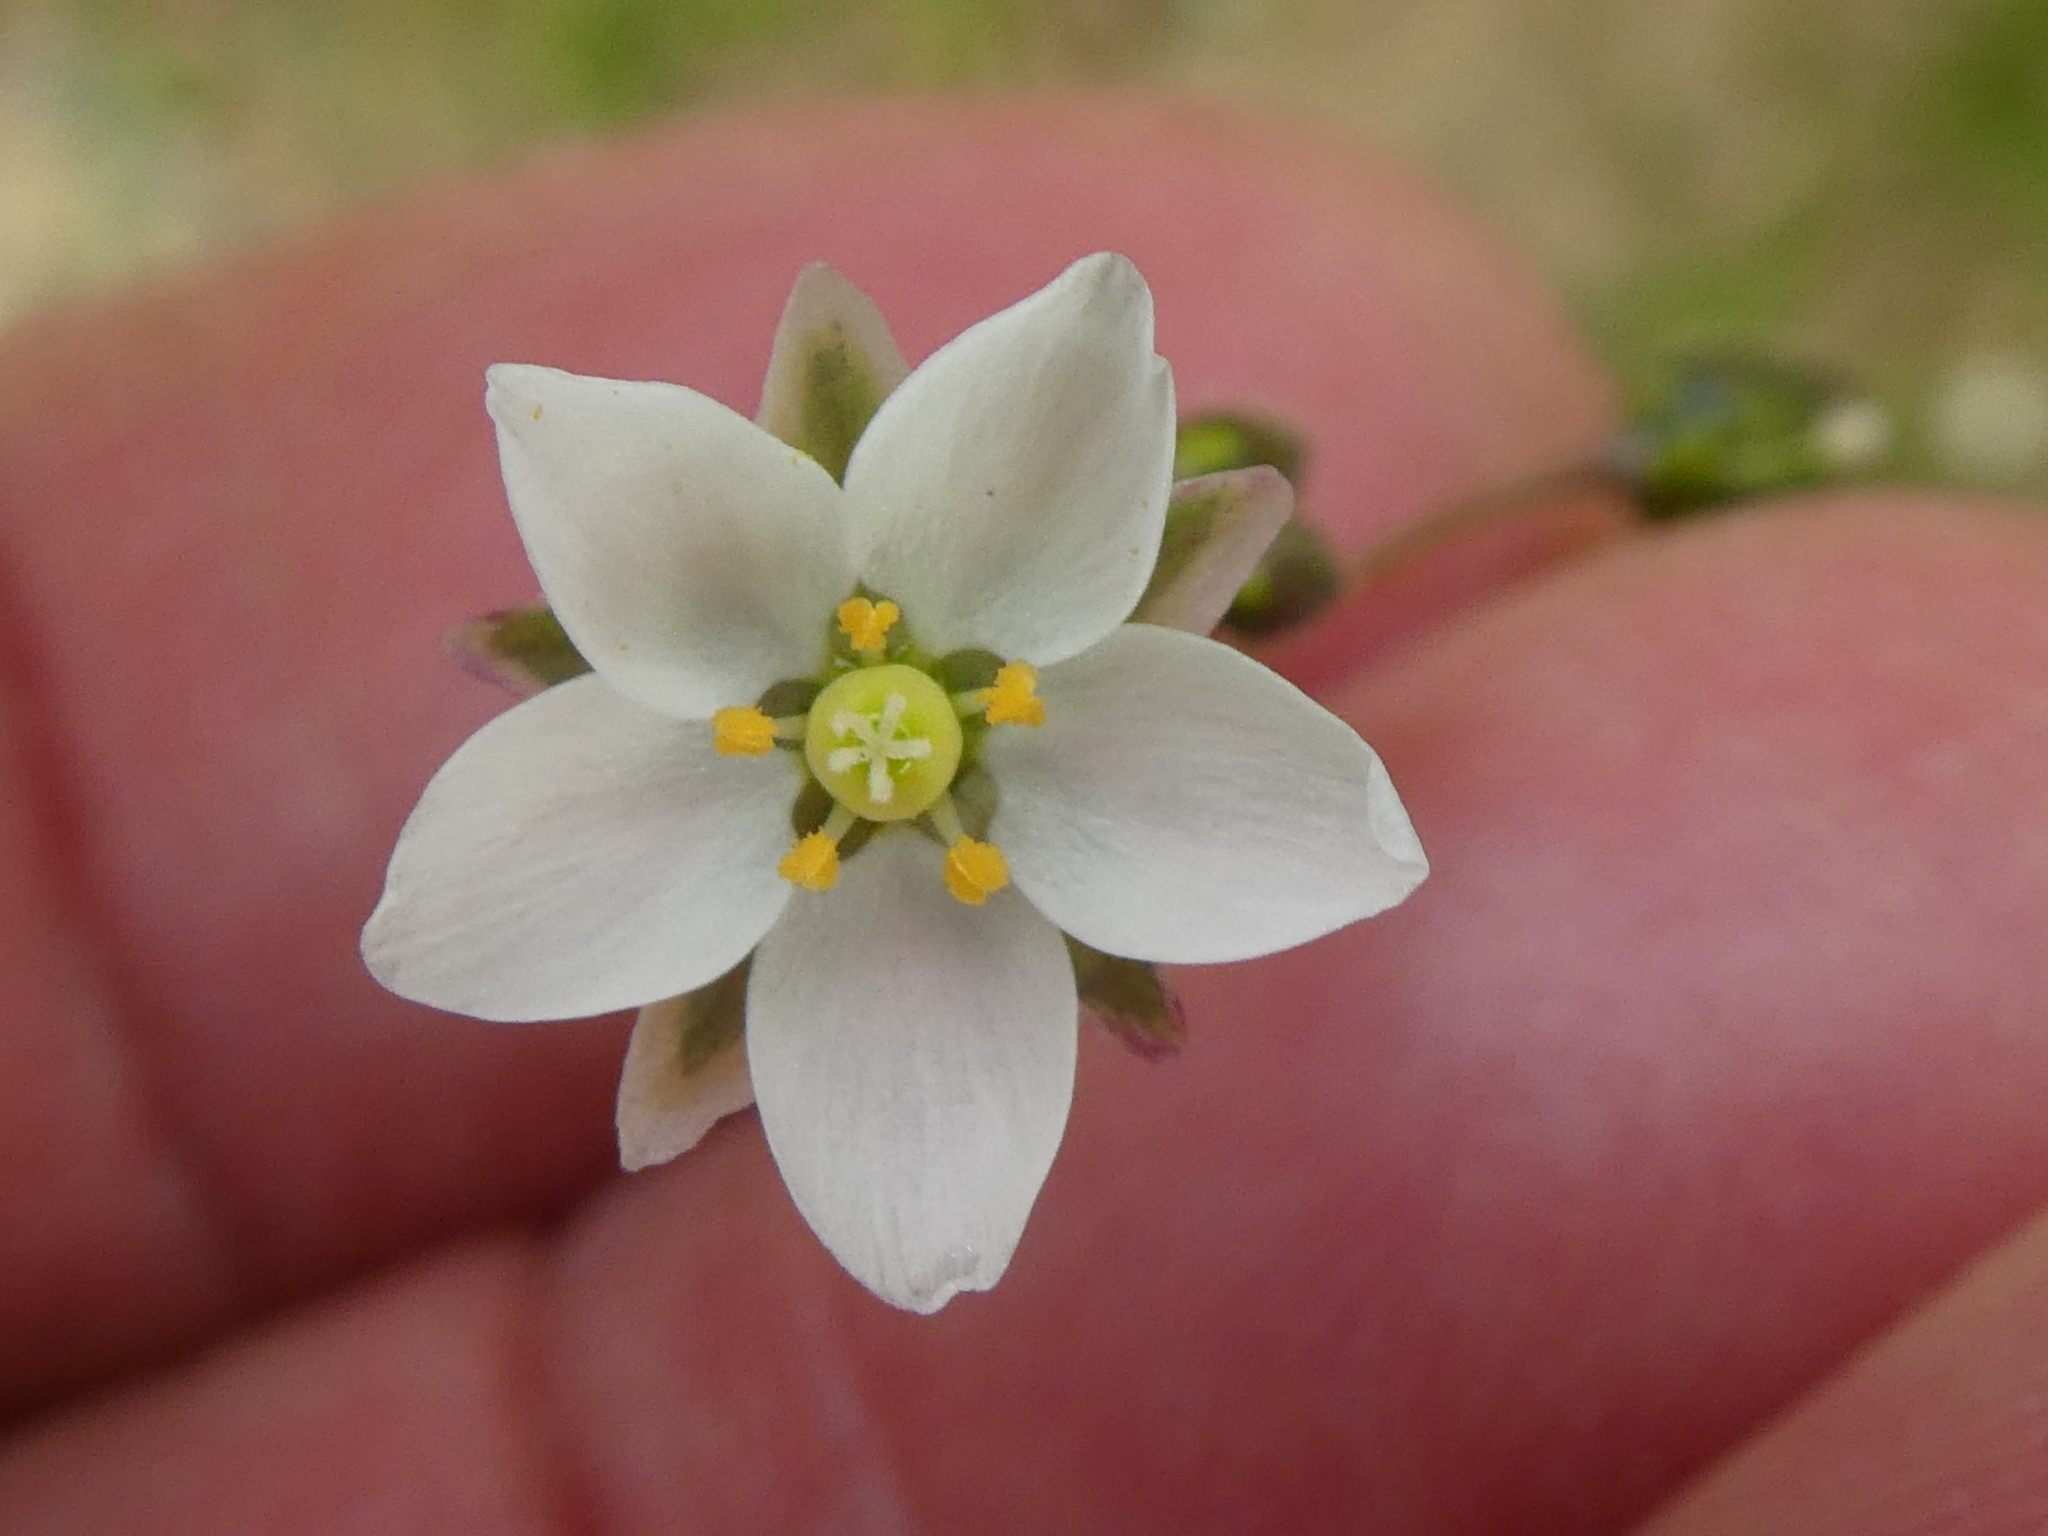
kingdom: Plantae
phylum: Tracheophyta
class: Magnoliopsida
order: Caryophyllales
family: Caryophyllaceae
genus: Spergula
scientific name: Spergula arvensis
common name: Corn spurrey
